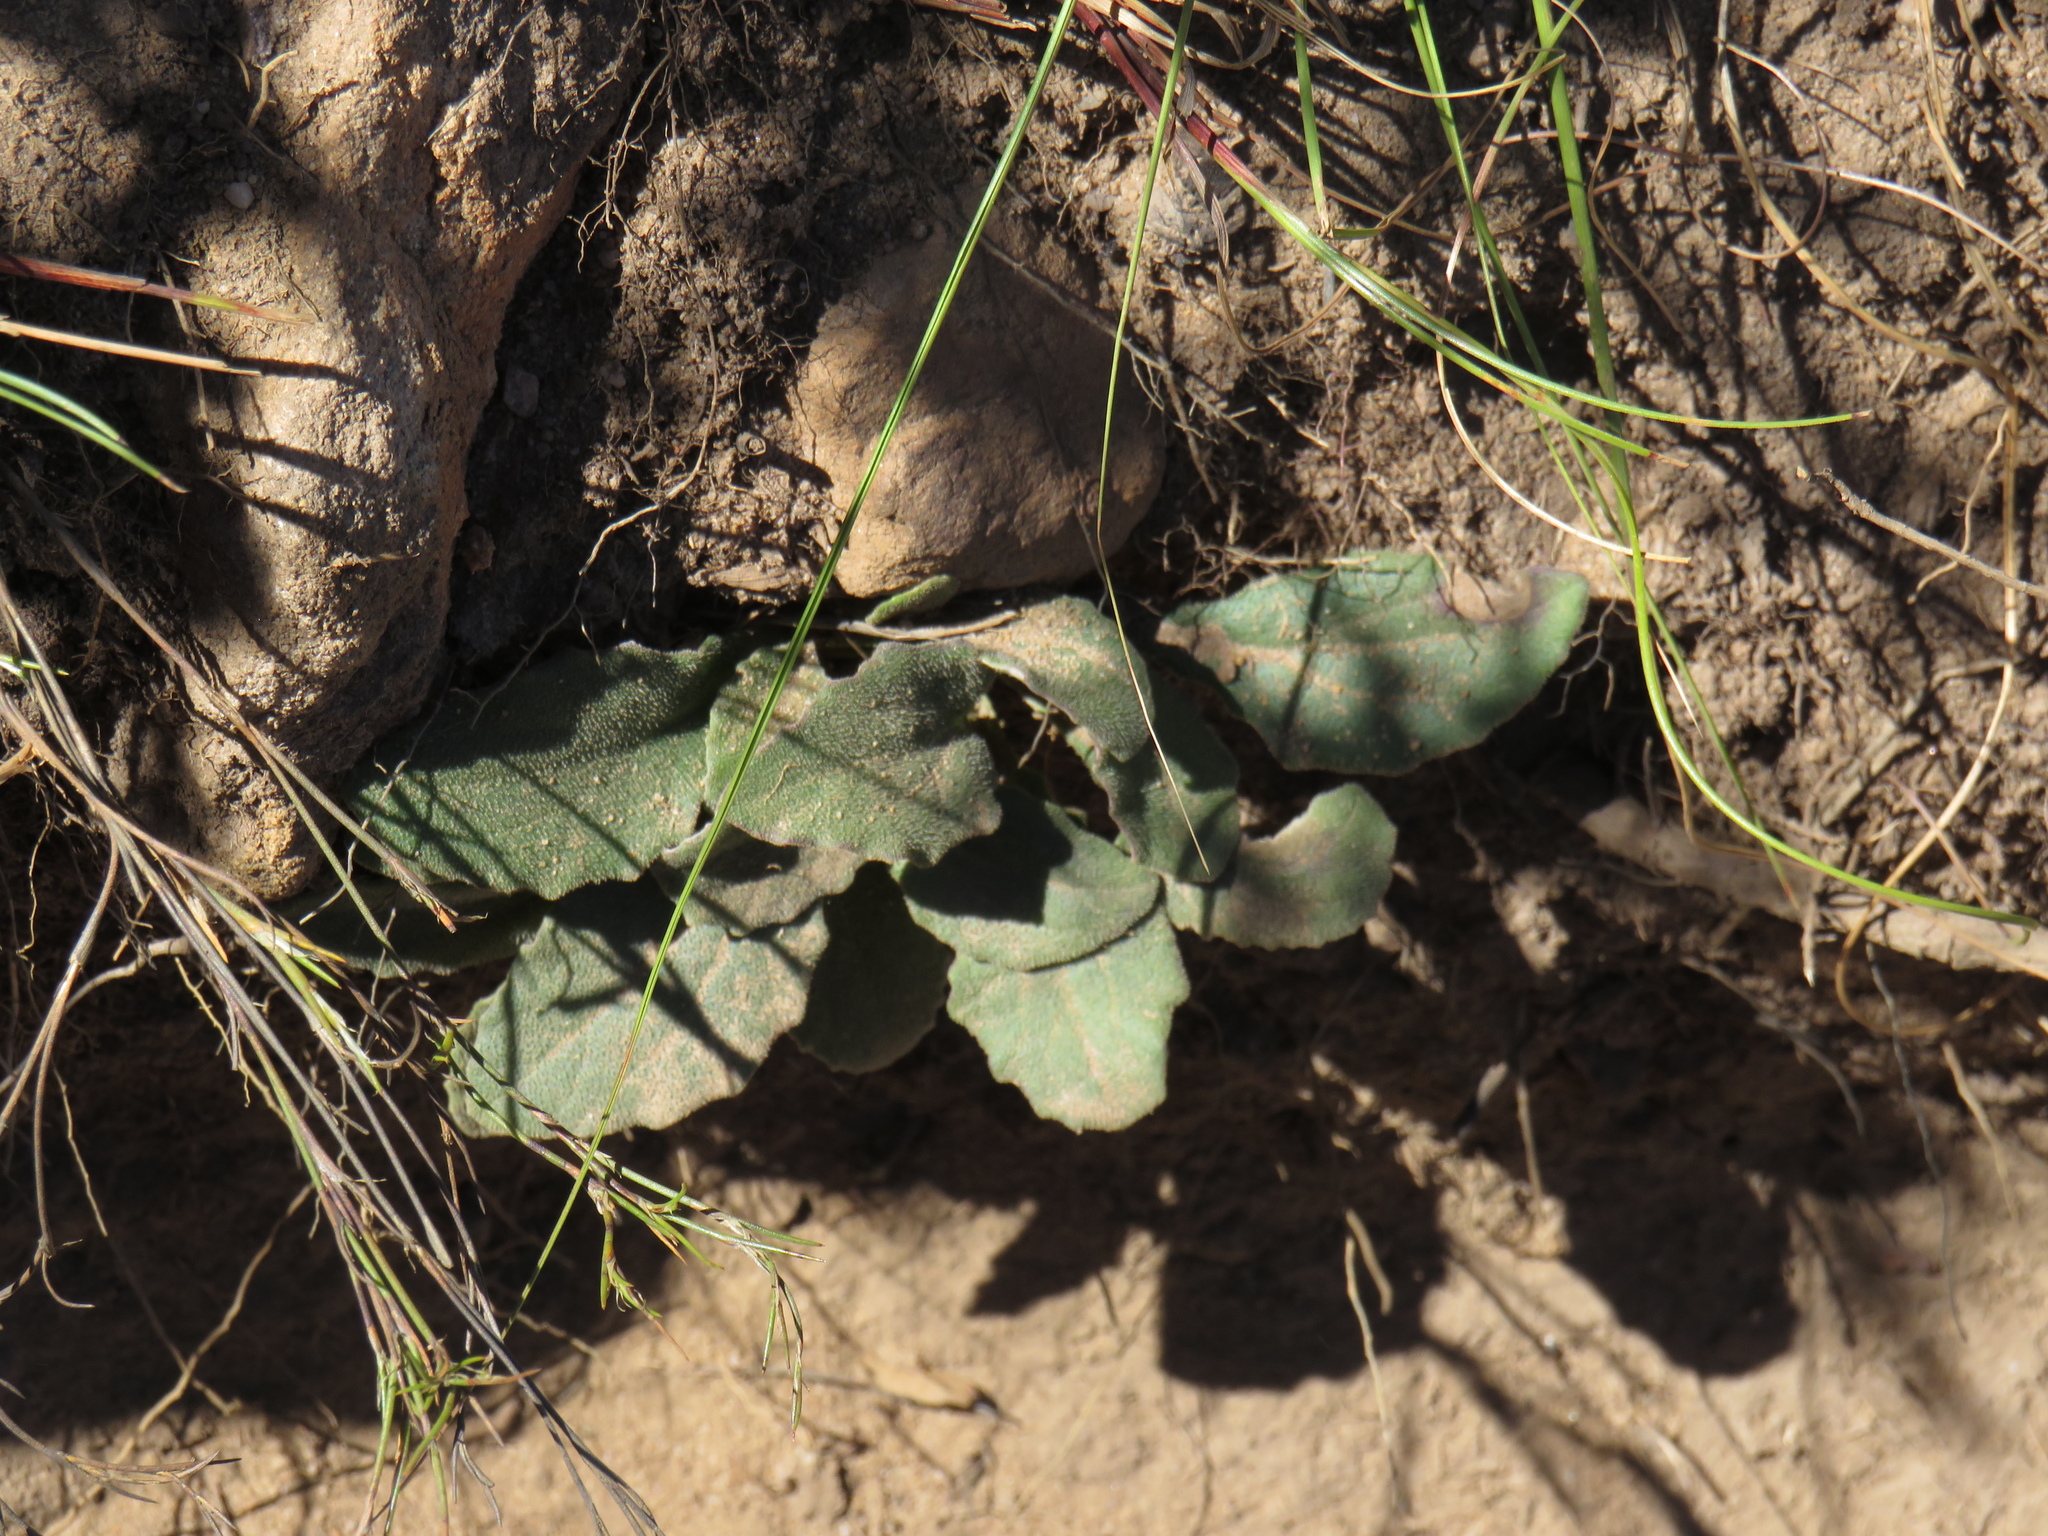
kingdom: Plantae
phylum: Tracheophyta
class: Magnoliopsida
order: Asterales
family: Asteraceae
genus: Haplocarpha
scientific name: Haplocarpha lanata
